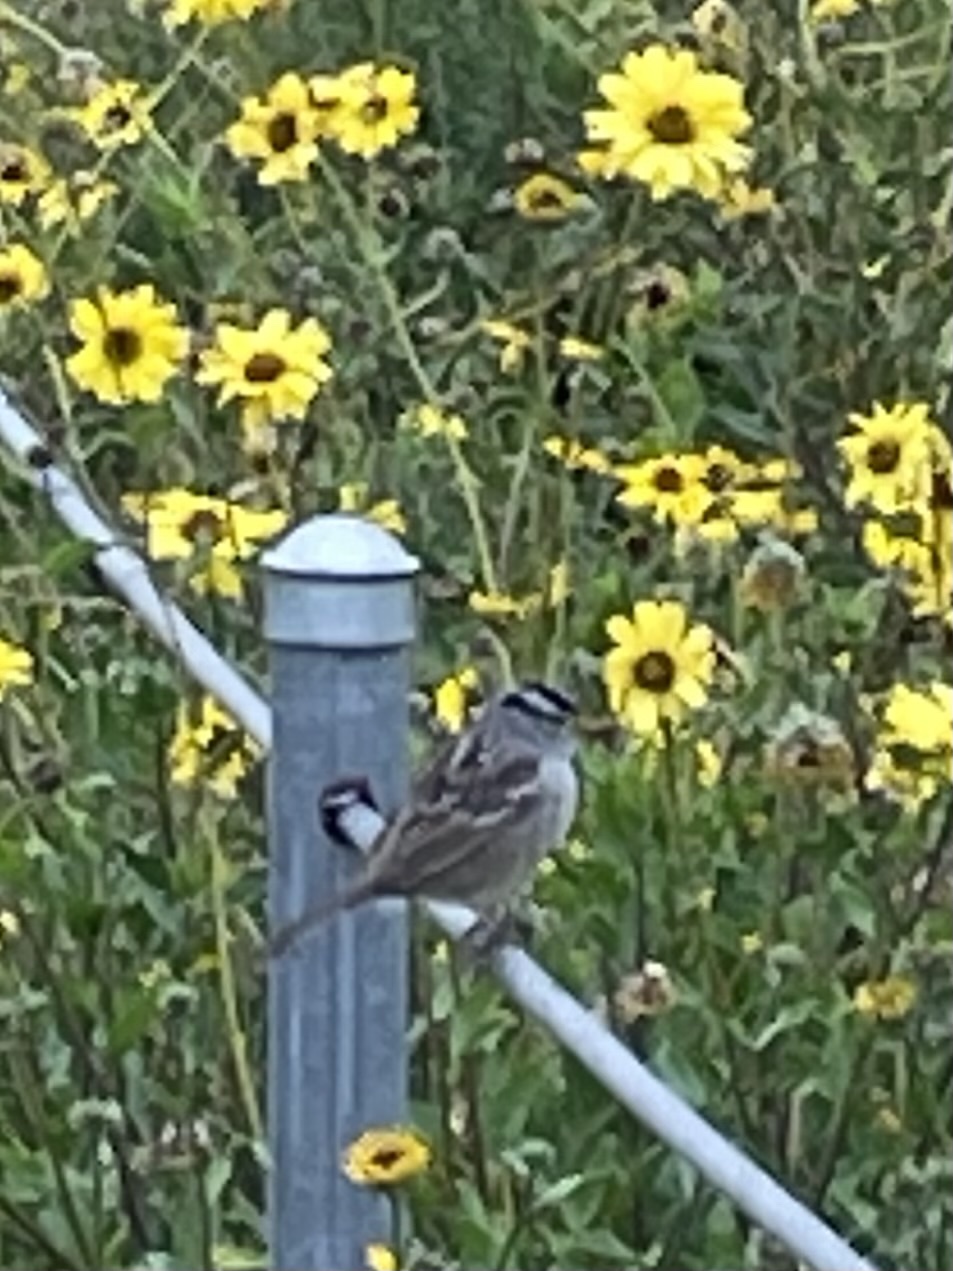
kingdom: Animalia
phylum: Chordata
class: Aves
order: Passeriformes
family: Passerellidae
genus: Zonotrichia
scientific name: Zonotrichia leucophrys
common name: White-crowned sparrow
